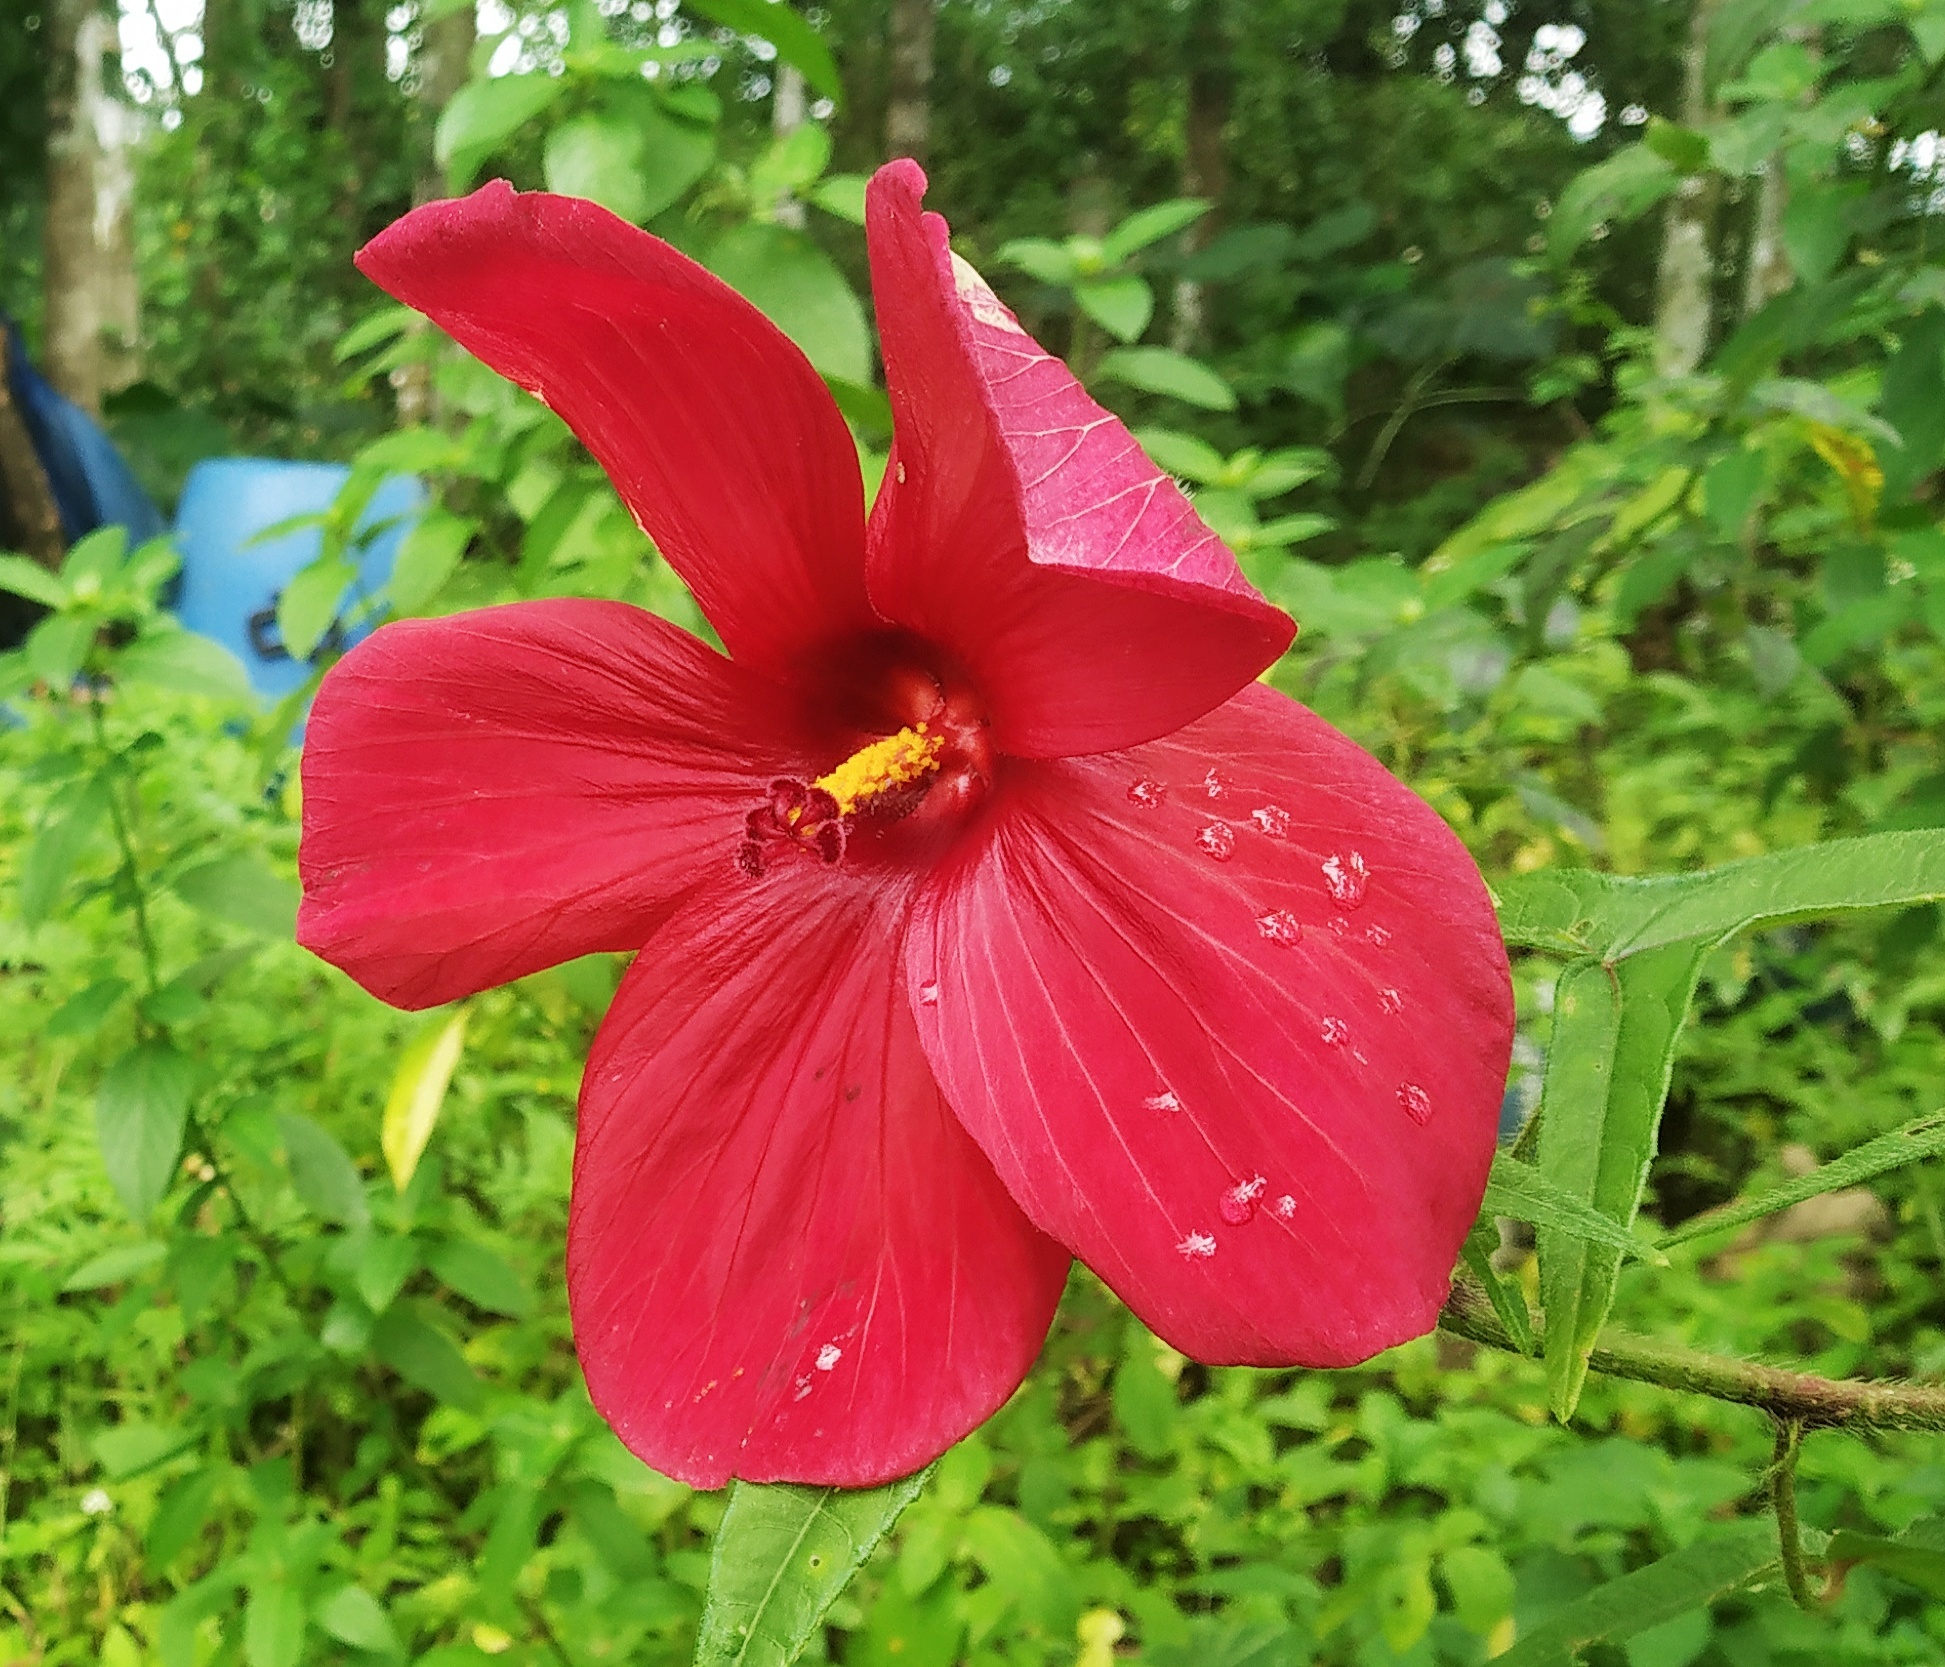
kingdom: Plantae
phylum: Tracheophyta
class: Magnoliopsida
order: Malvales
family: Malvaceae
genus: Abelmoschus
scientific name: Abelmoschus sagittifolius
